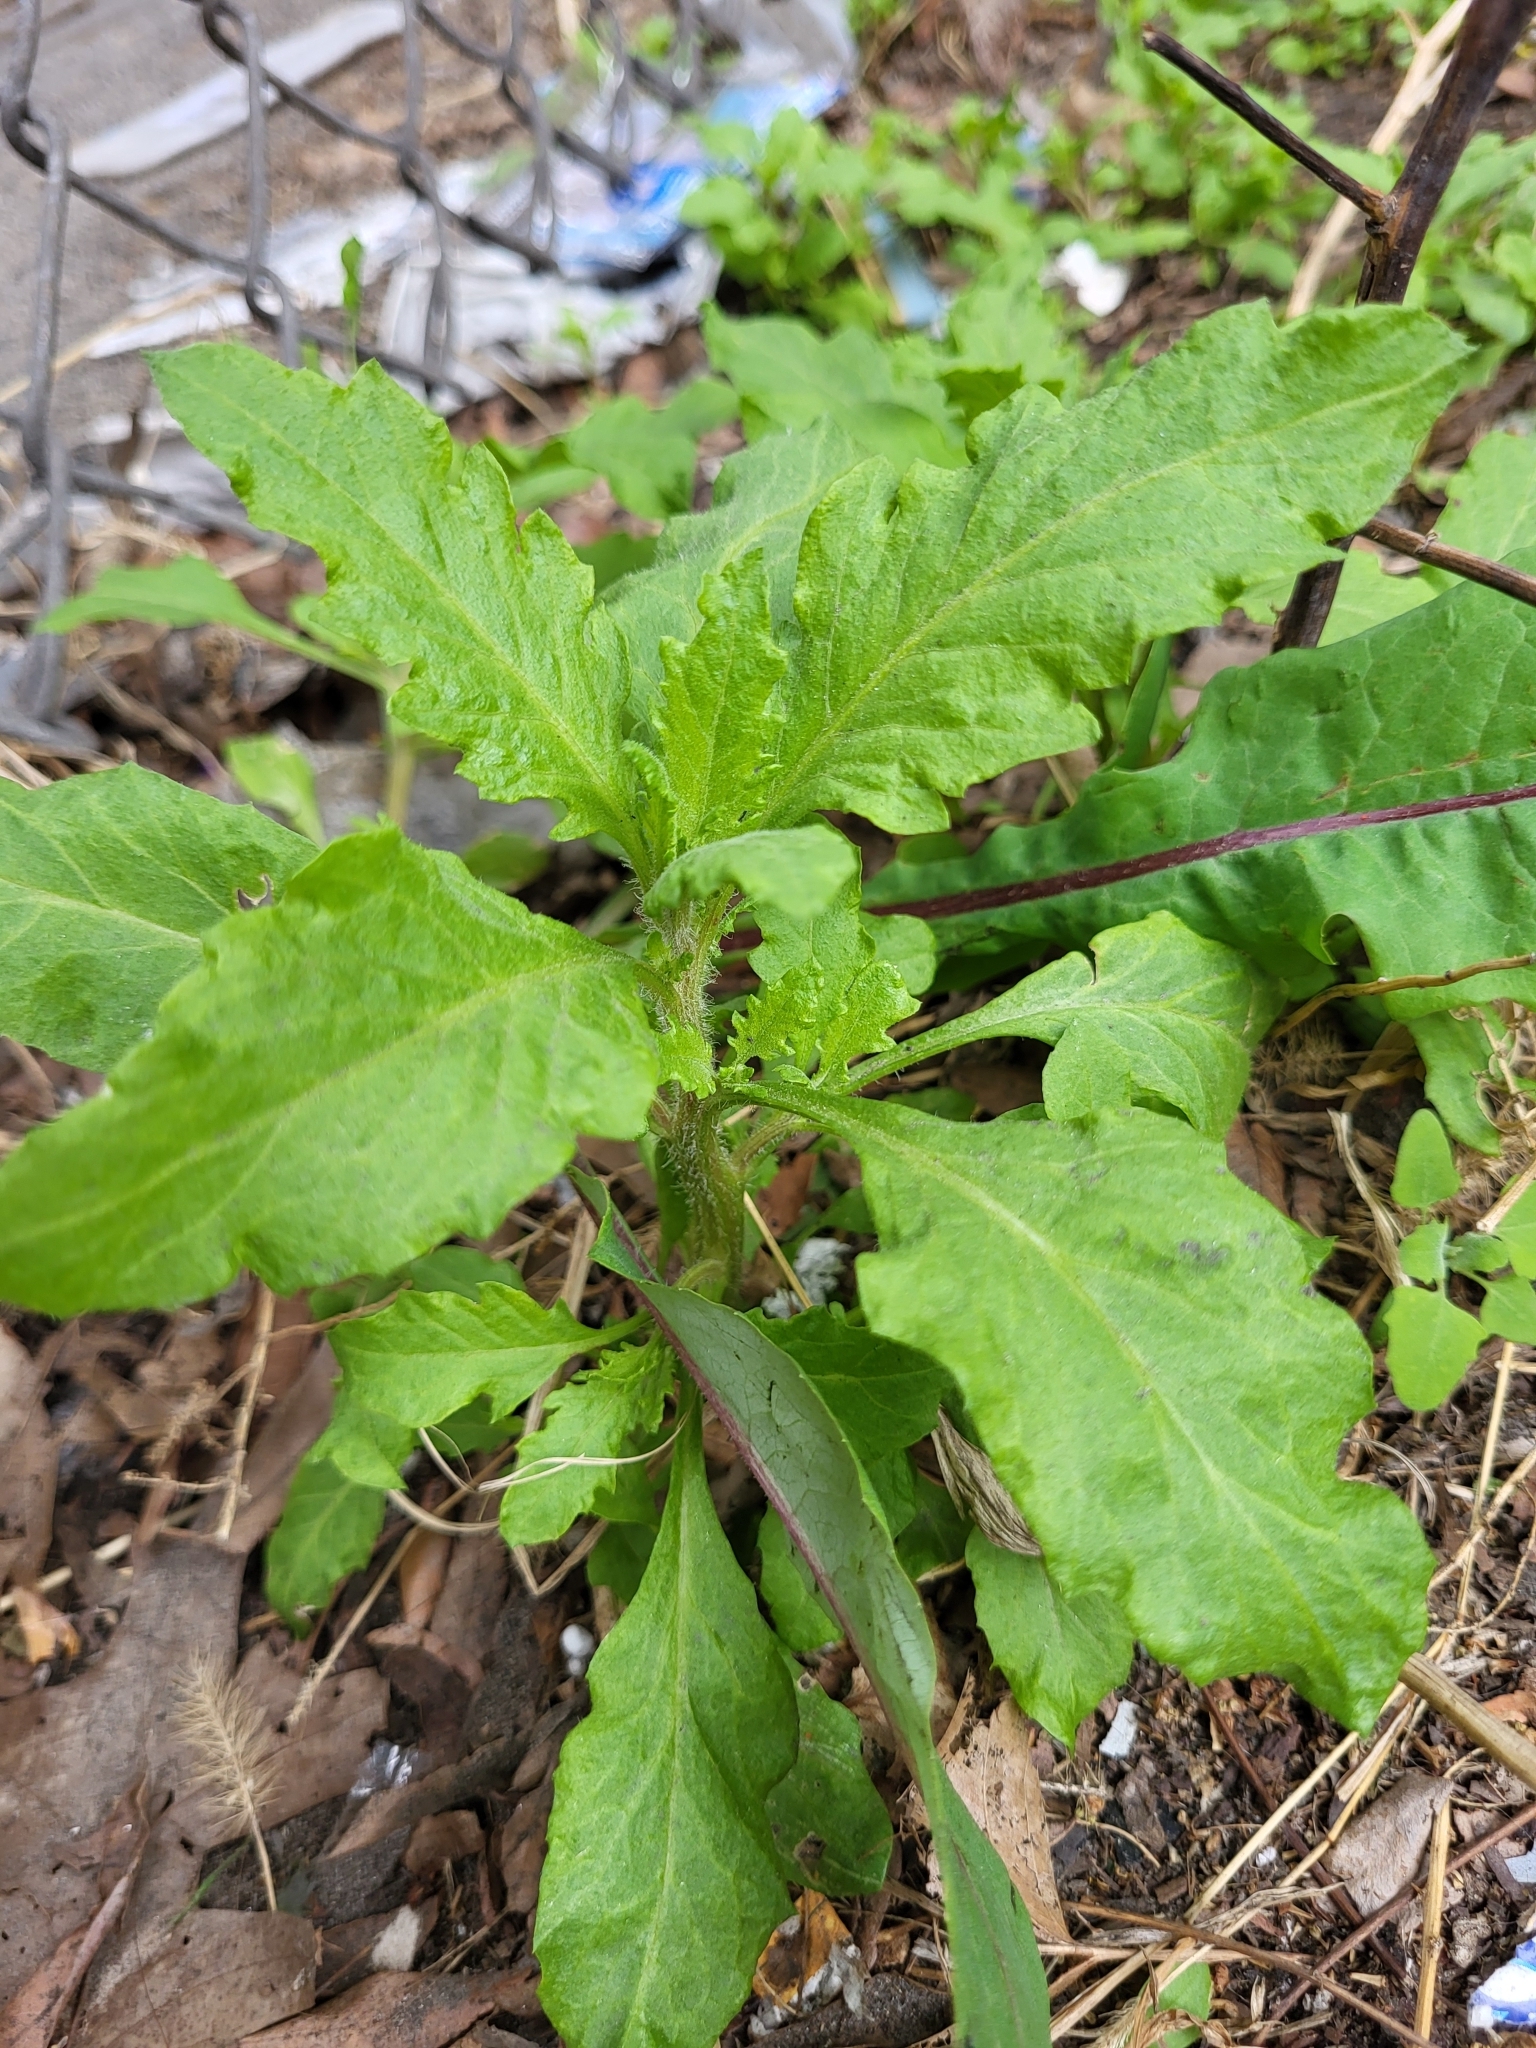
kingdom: Plantae
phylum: Tracheophyta
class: Magnoliopsida
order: Caryophyllales
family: Amaranthaceae
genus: Dysphania
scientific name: Dysphania ambrosioides
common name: Wormseed
